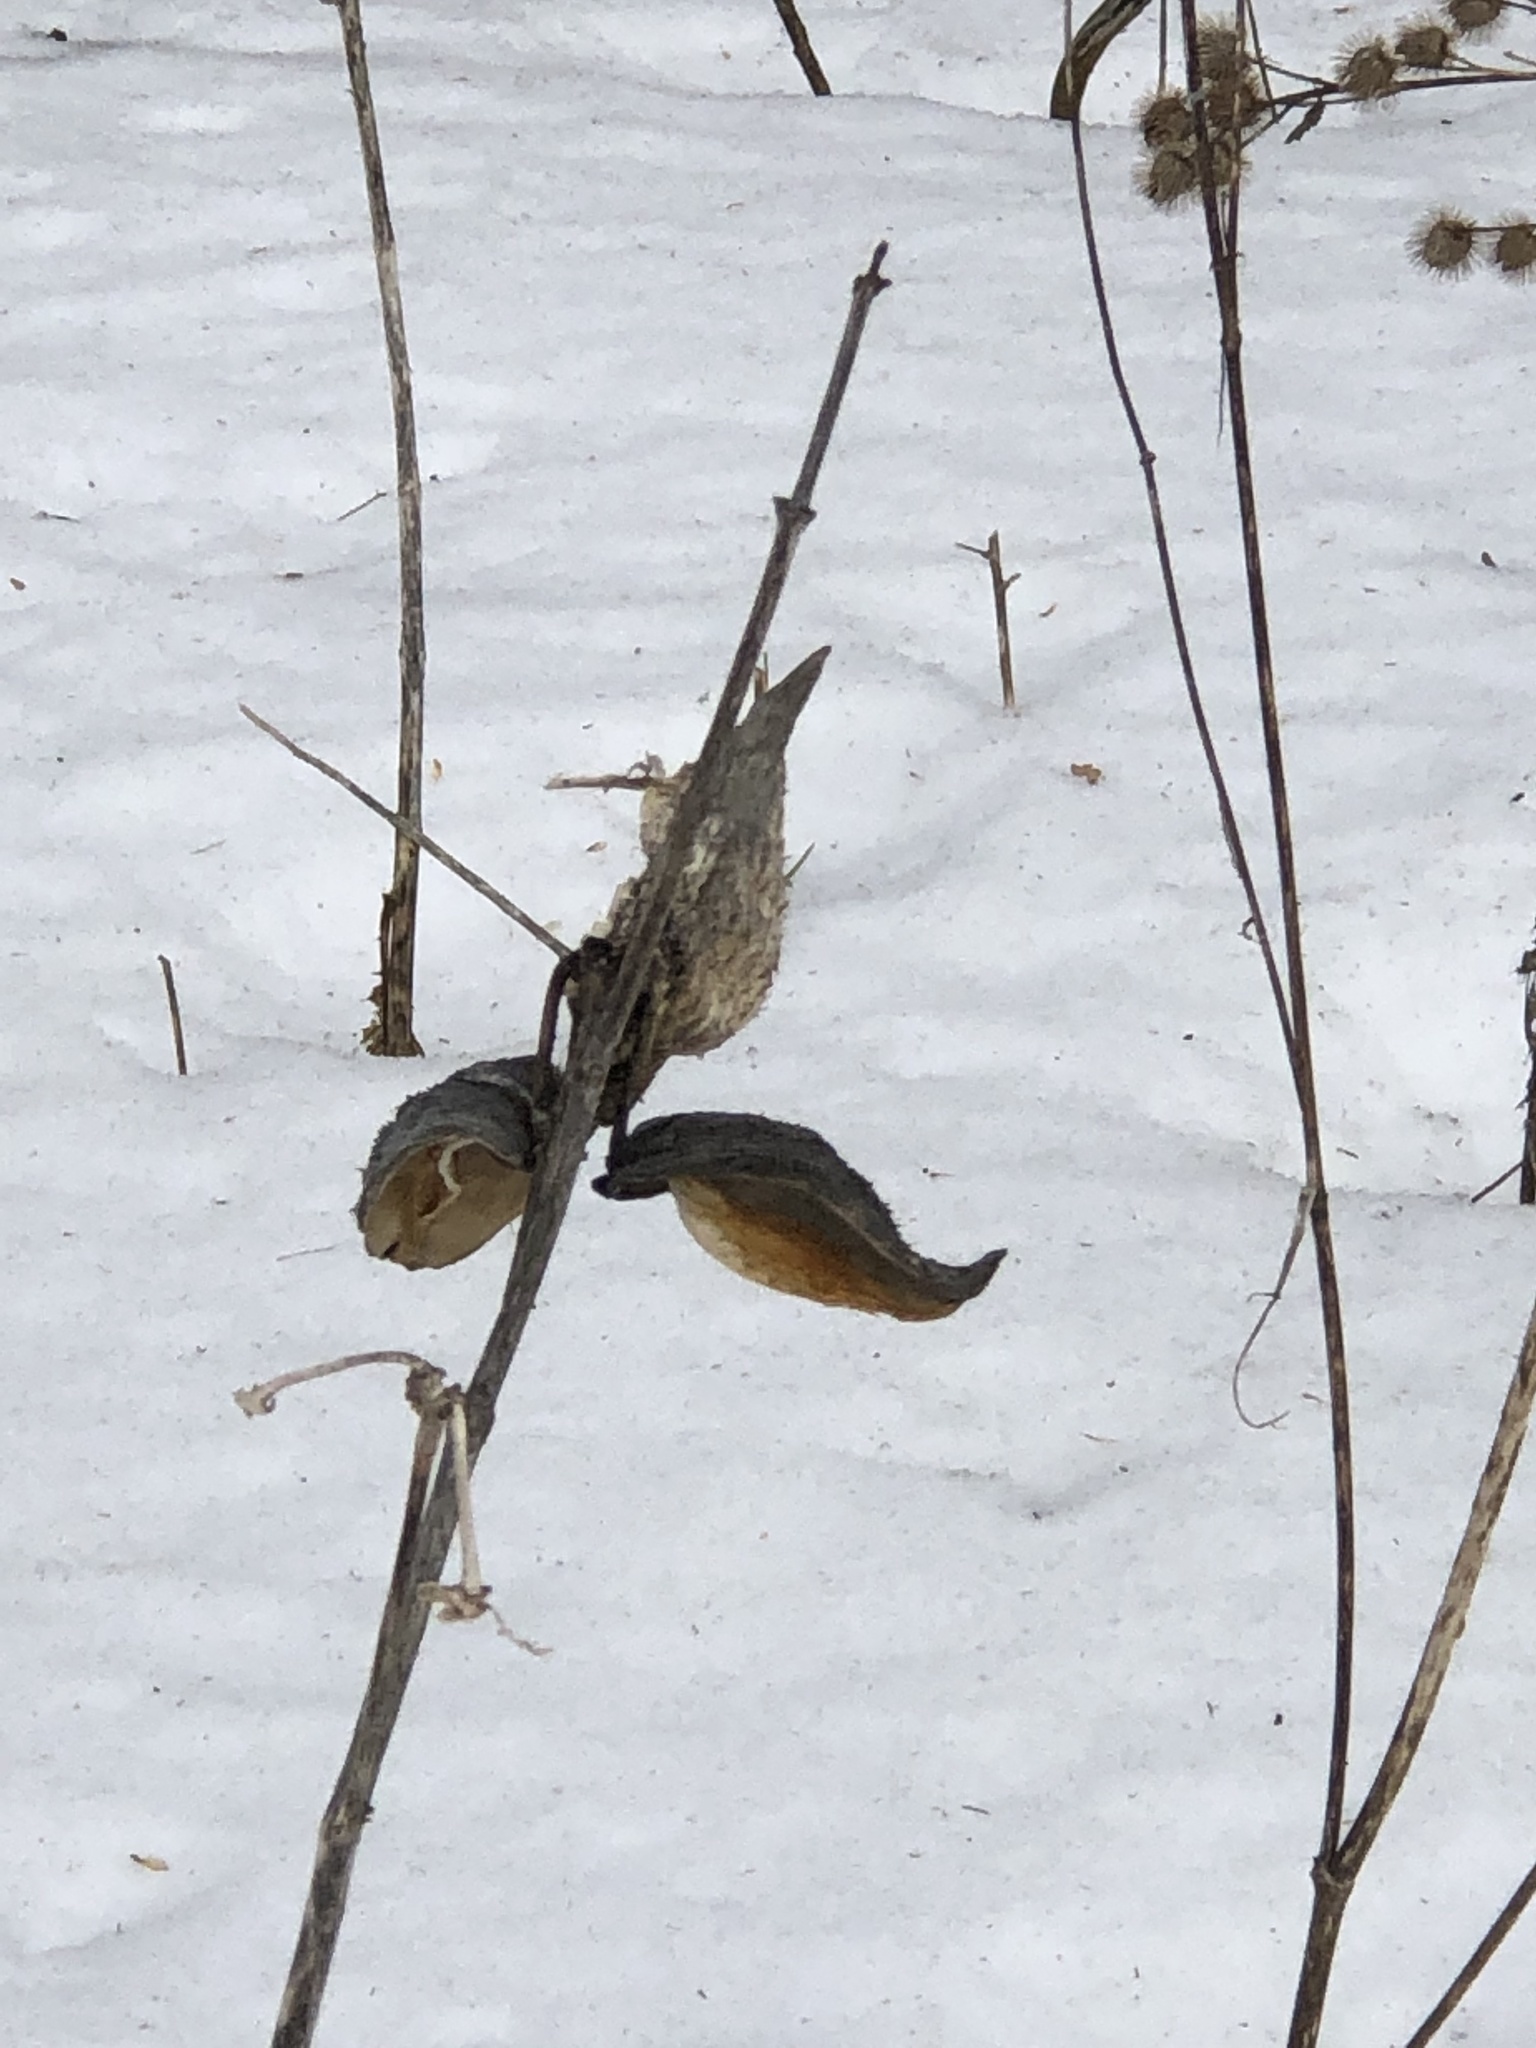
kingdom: Plantae
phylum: Tracheophyta
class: Magnoliopsida
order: Gentianales
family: Apocynaceae
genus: Asclepias
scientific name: Asclepias syriaca
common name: Common milkweed
